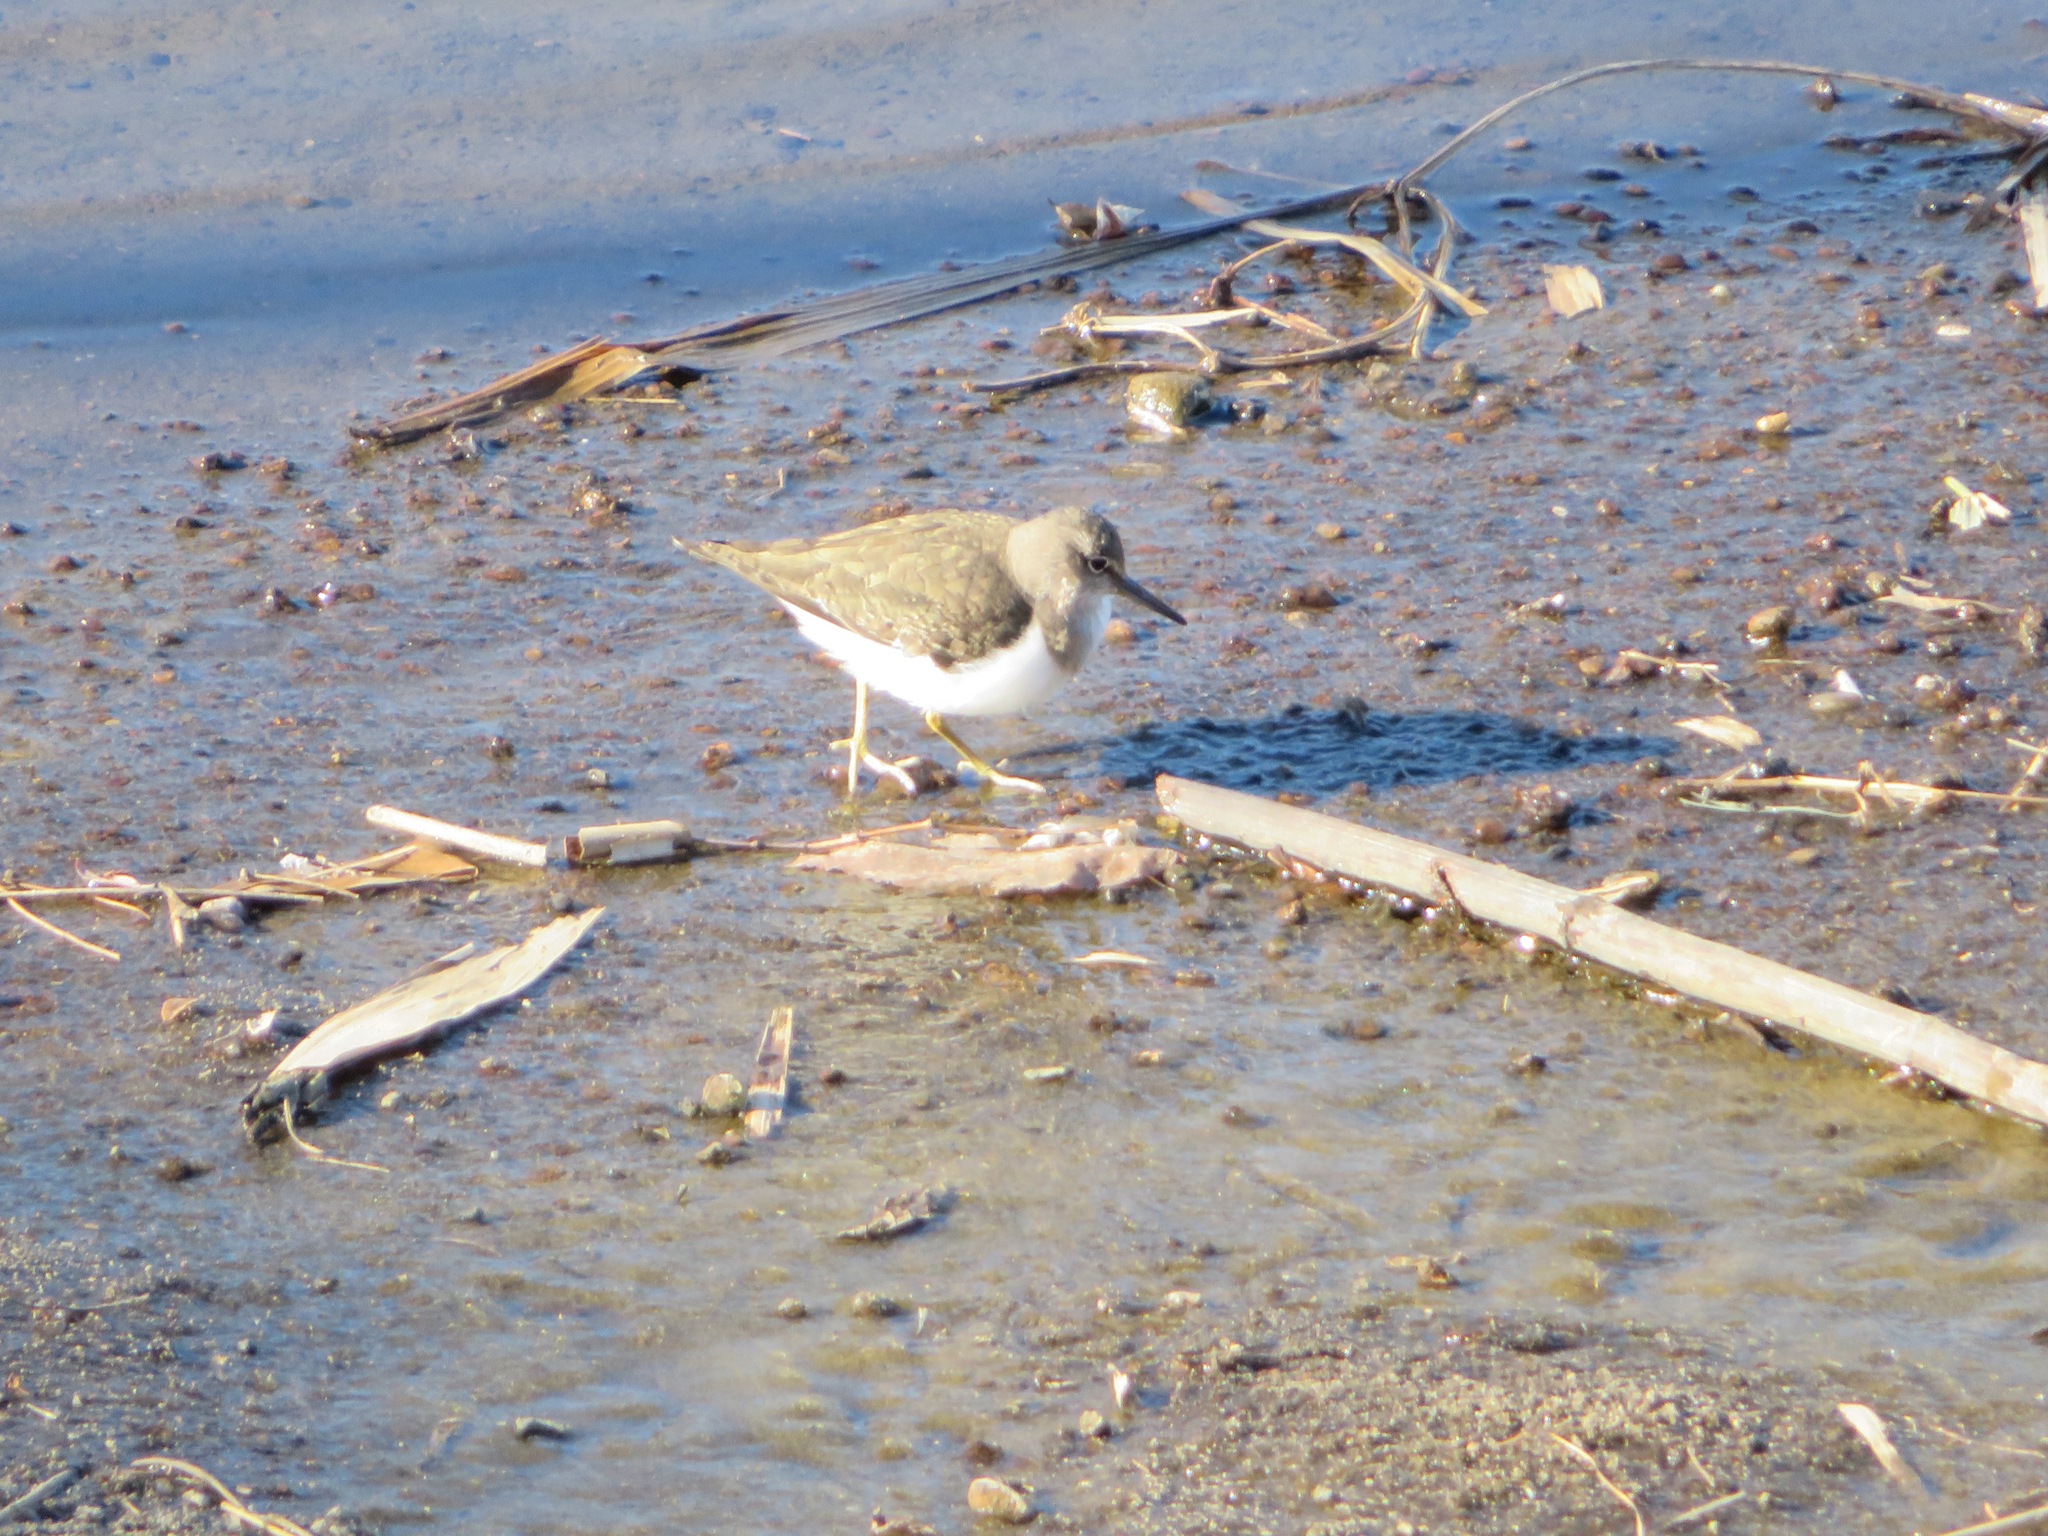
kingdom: Animalia
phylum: Chordata
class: Aves
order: Charadriiformes
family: Scolopacidae
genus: Actitis
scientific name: Actitis hypoleucos
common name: Common sandpiper
